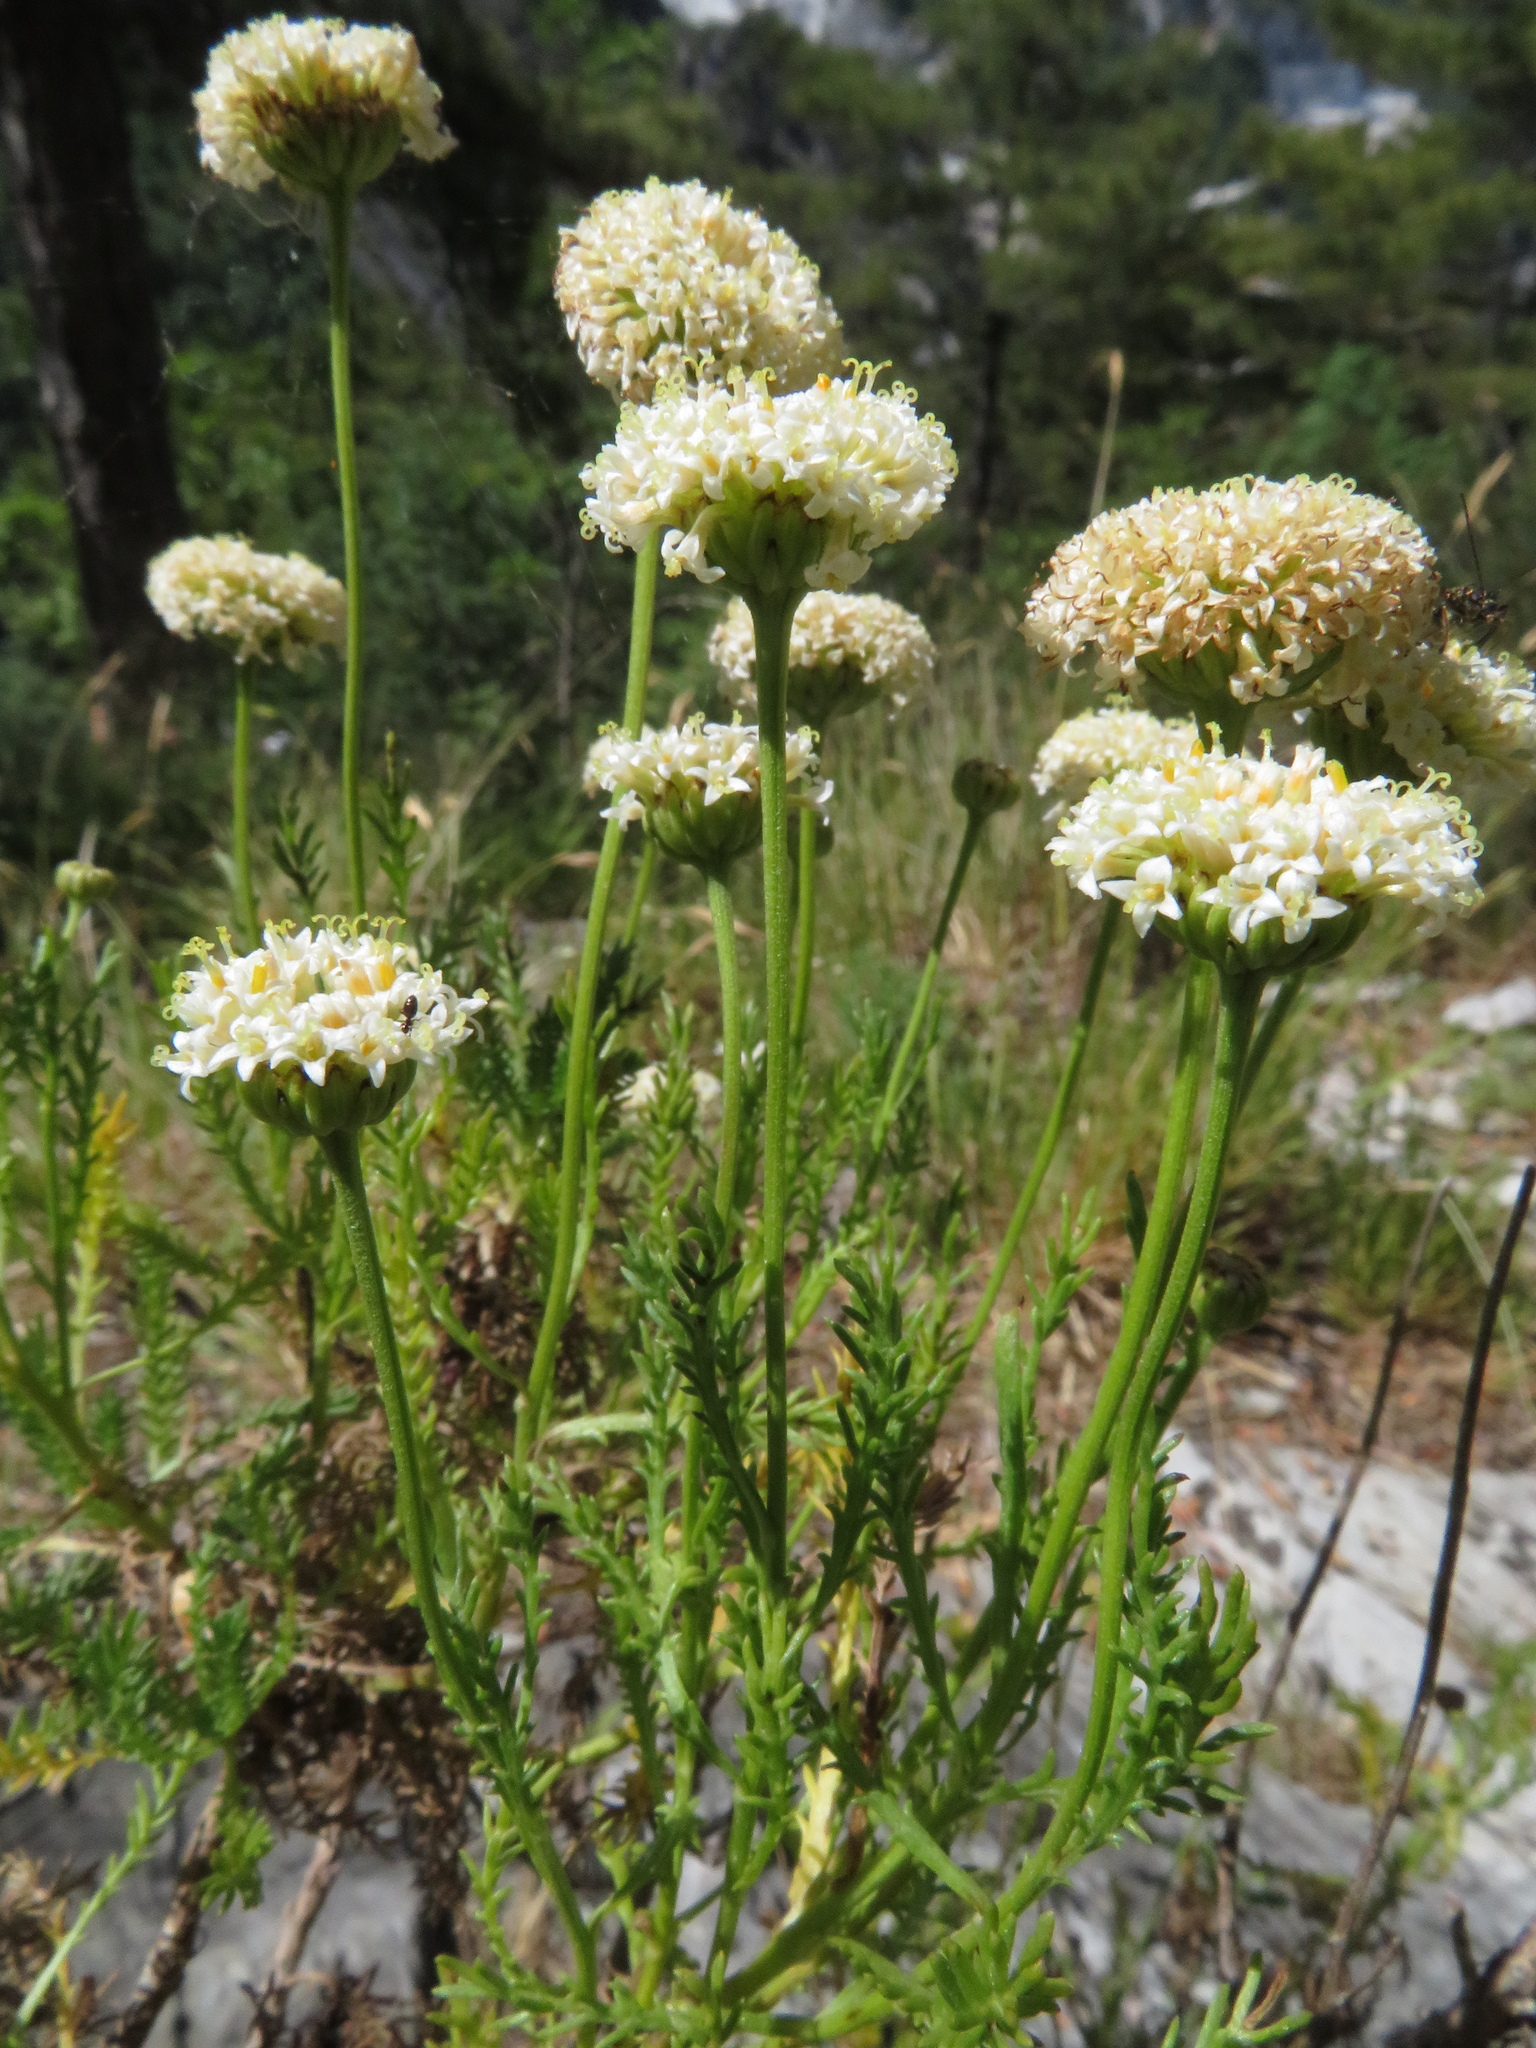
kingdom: Plantae
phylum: Tracheophyta
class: Magnoliopsida
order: Asterales
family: Asteraceae
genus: Santolina
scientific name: Santolina pinnata
